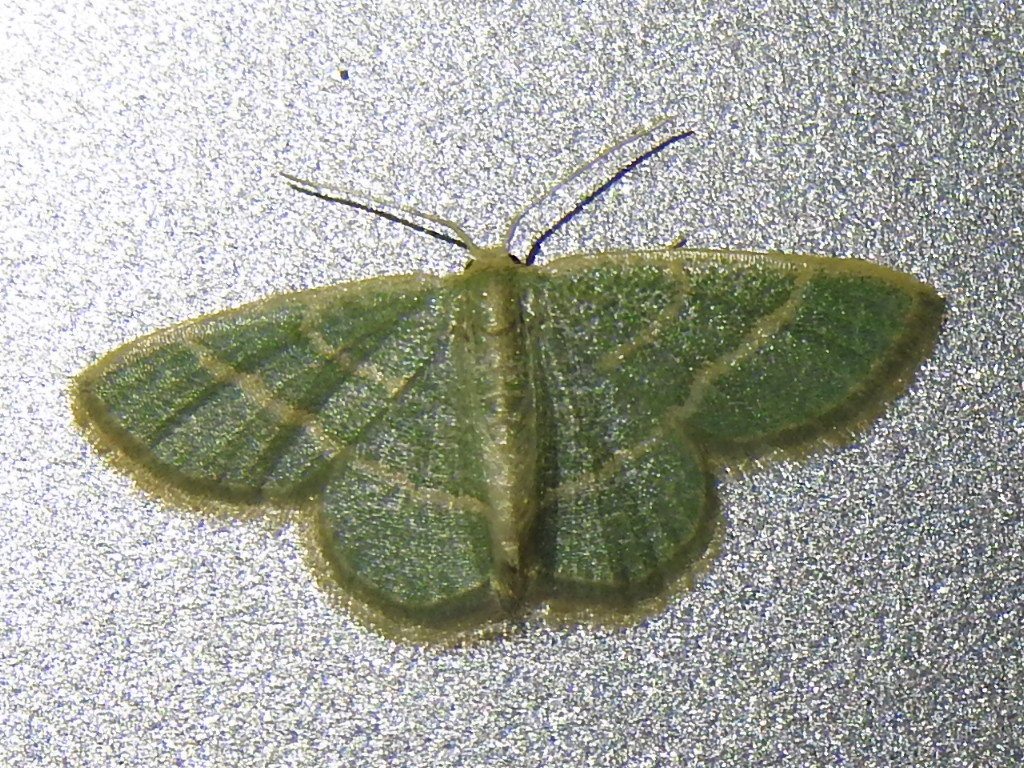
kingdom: Animalia
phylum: Arthropoda
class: Insecta
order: Lepidoptera
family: Geometridae
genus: Chlorochlamys
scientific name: Chlorochlamys chloroleucaria
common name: Blackberry looper
